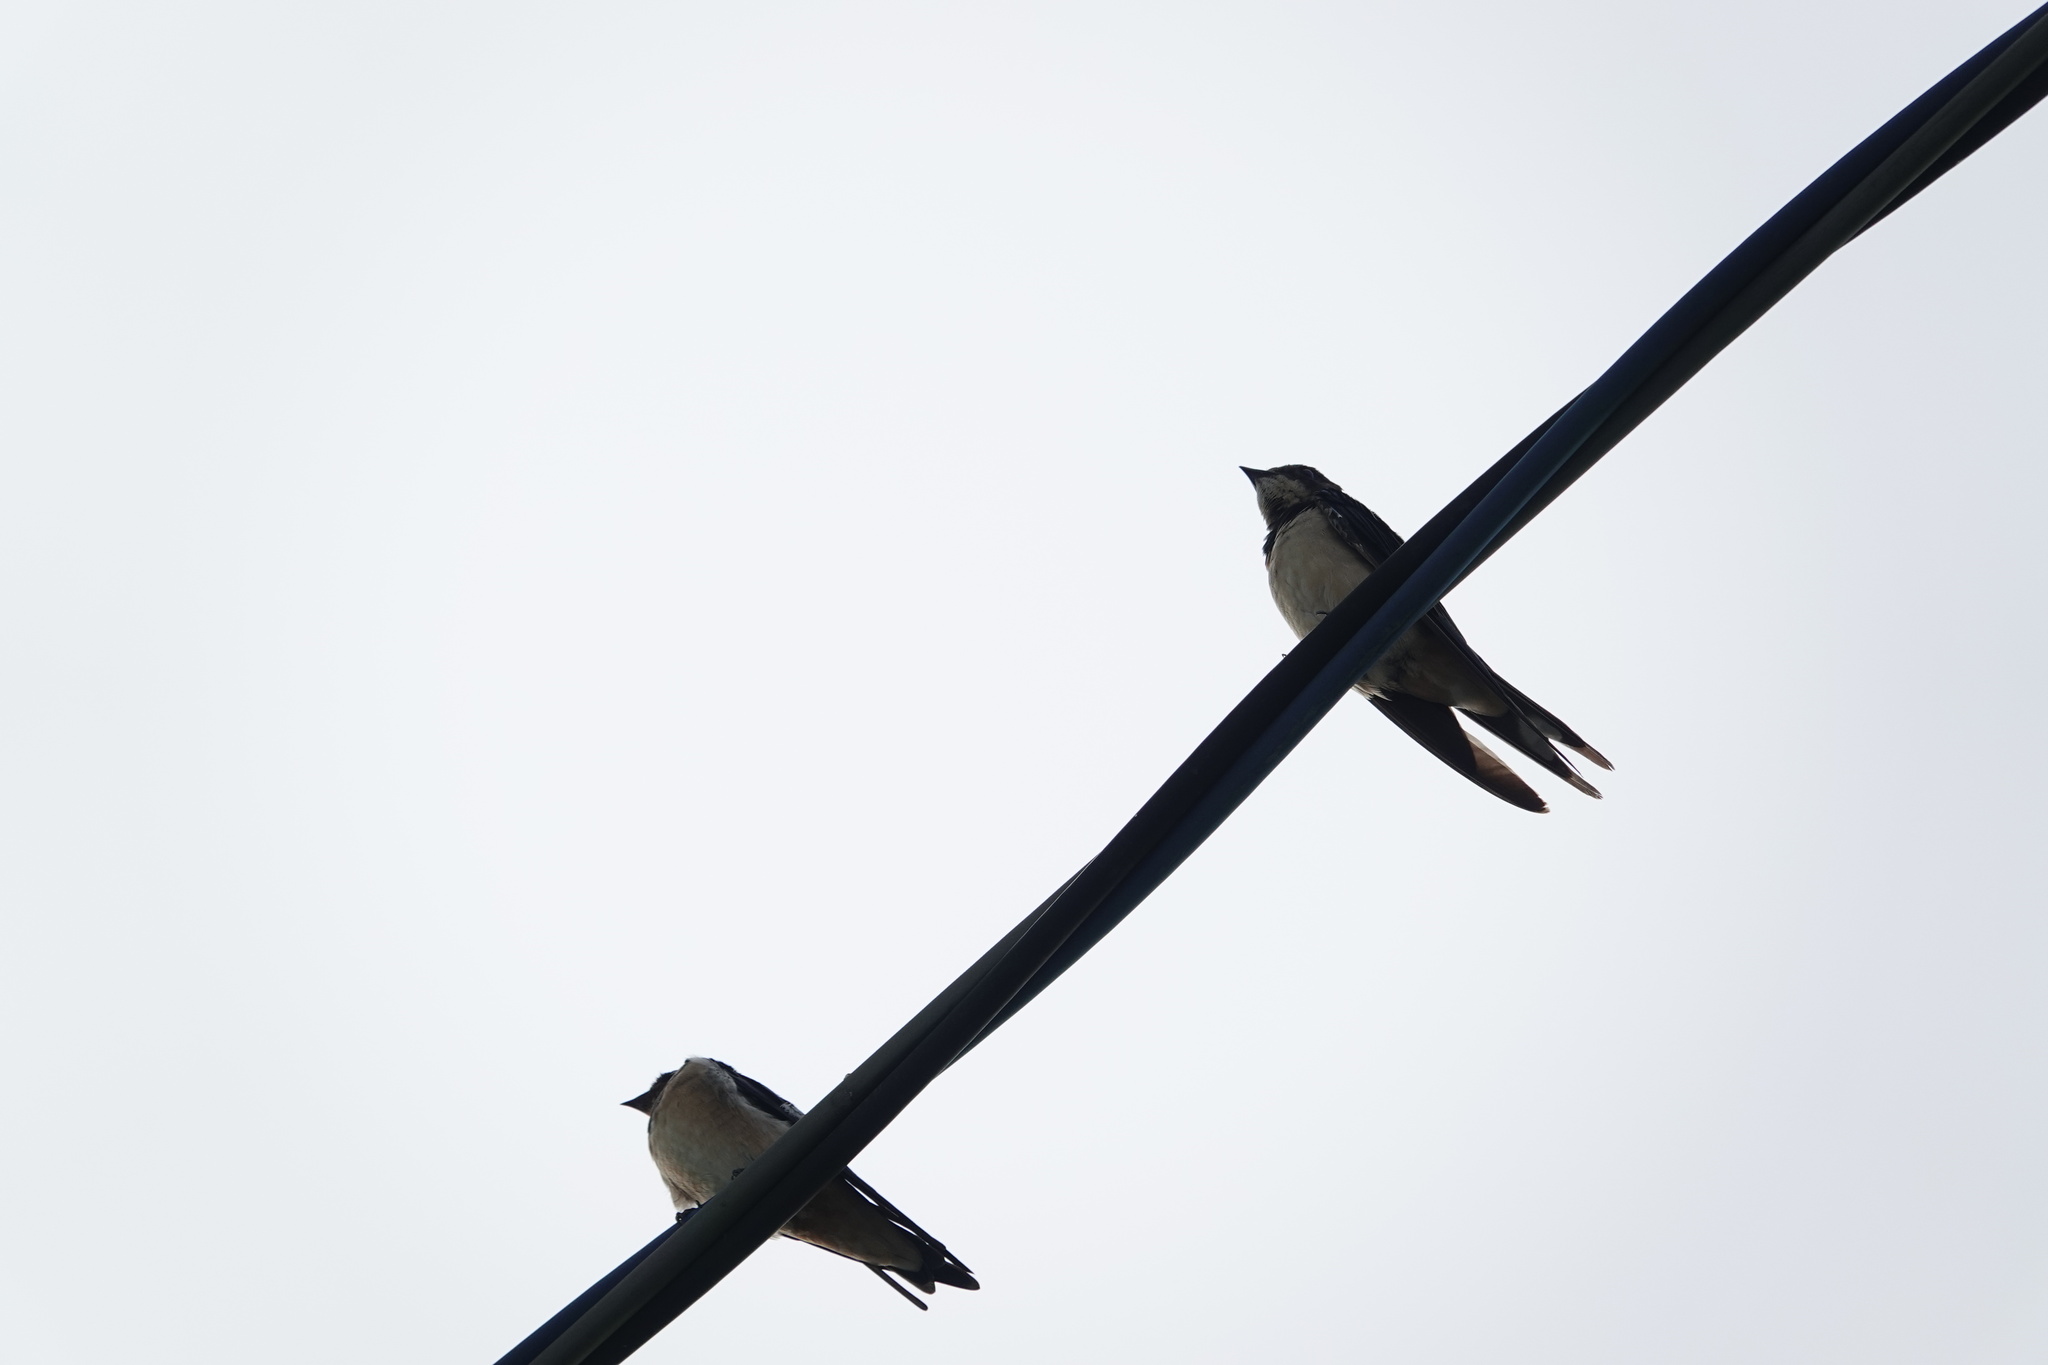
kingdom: Animalia
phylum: Chordata
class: Aves
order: Passeriformes
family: Hirundinidae
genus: Hirundo
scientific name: Hirundo rustica
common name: Barn swallow
